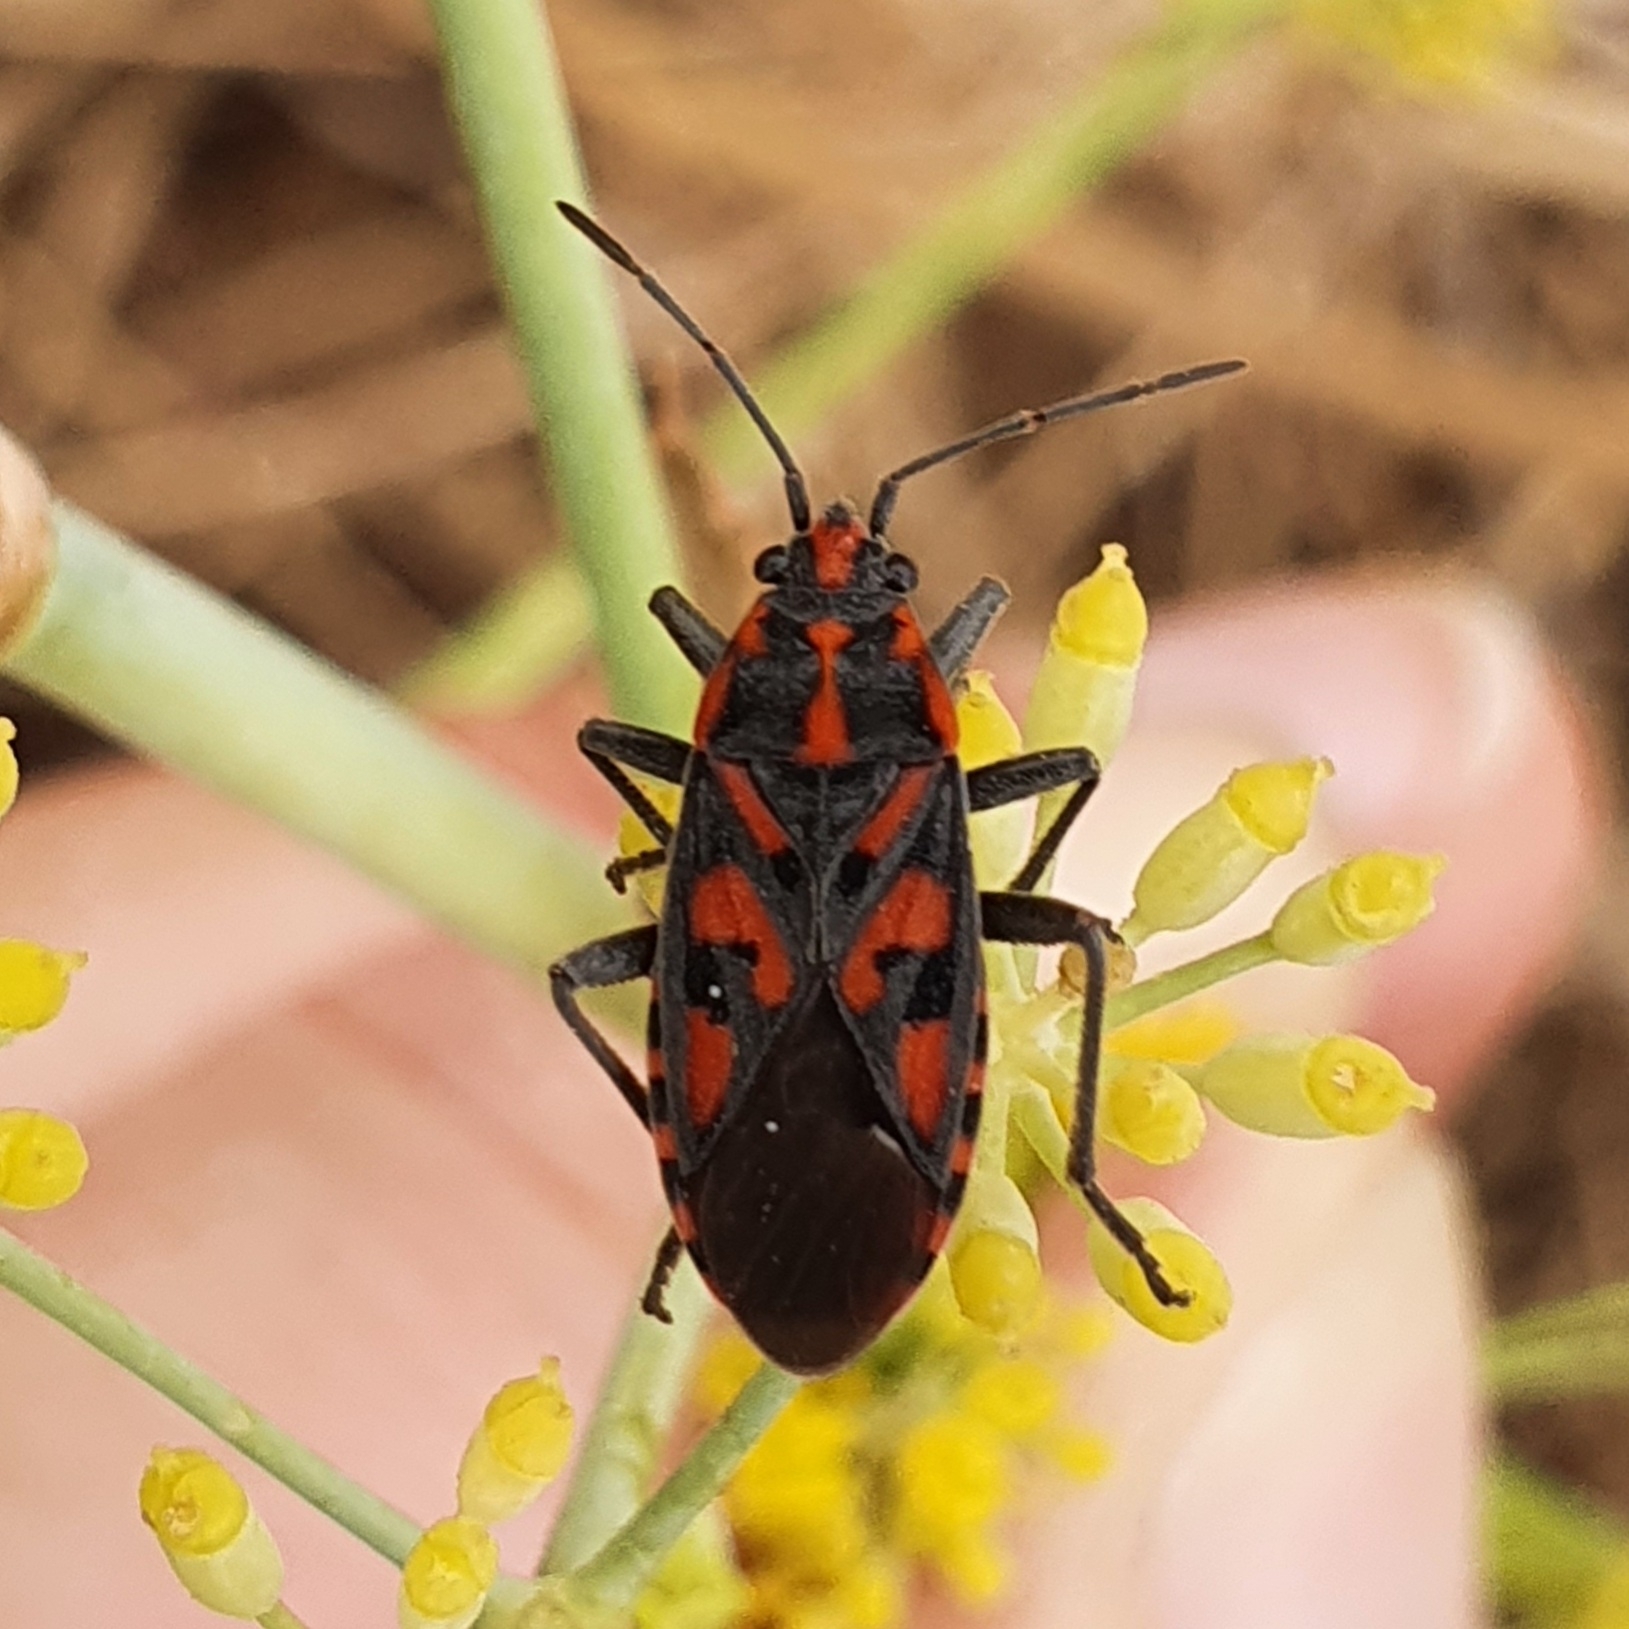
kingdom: Animalia
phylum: Arthropoda
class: Insecta
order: Hemiptera
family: Lygaeidae
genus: Spilostethus
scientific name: Spilostethus saxatilis
